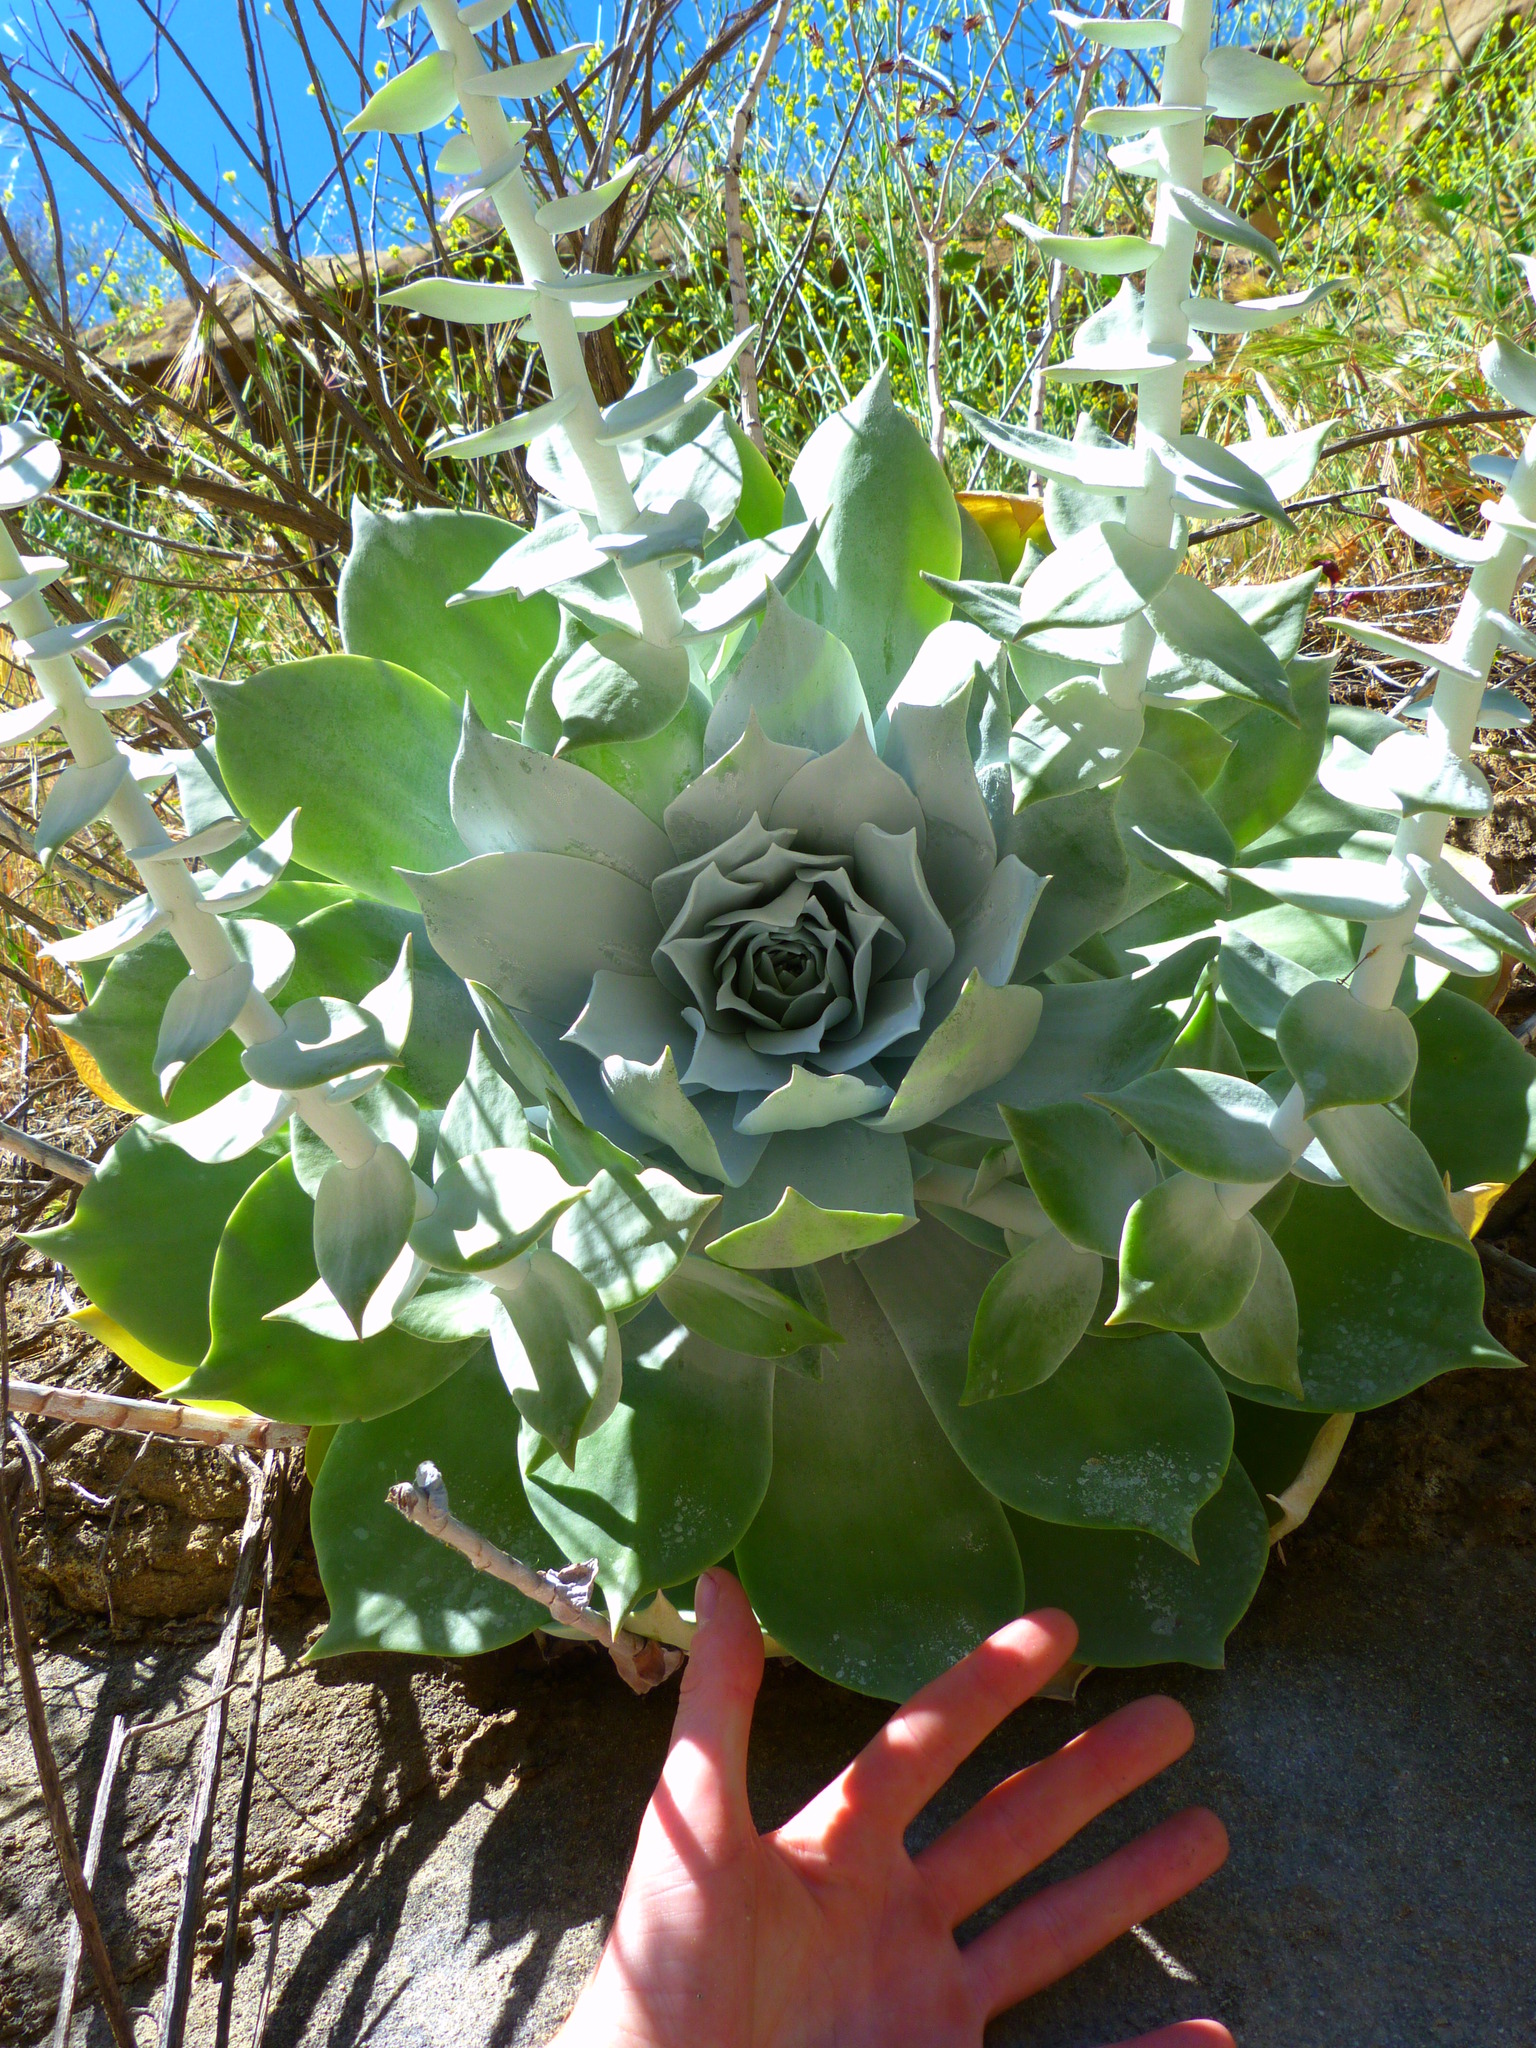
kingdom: Plantae
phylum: Tracheophyta
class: Magnoliopsida
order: Saxifragales
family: Crassulaceae
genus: Dudleya
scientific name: Dudleya pulverulenta
